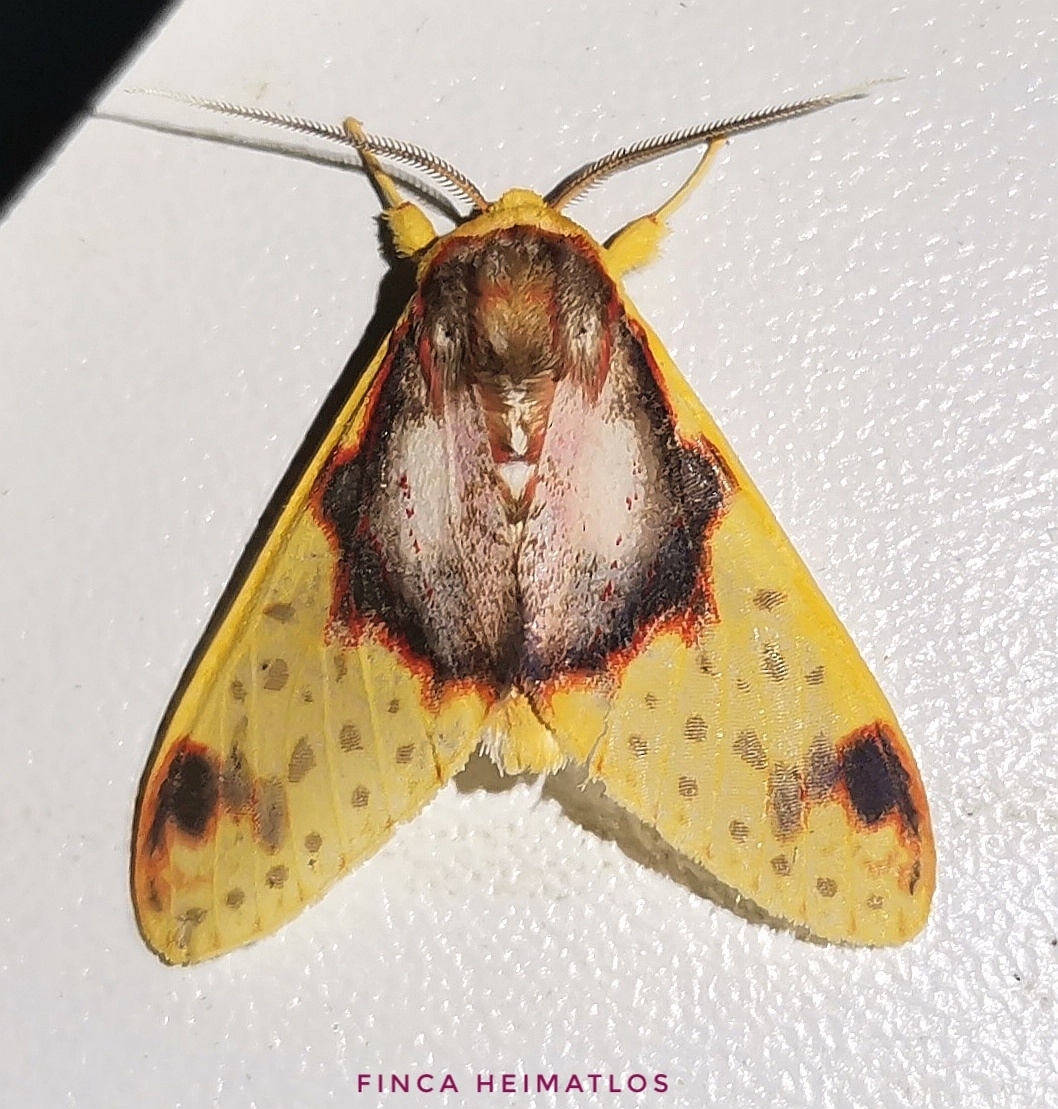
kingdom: Animalia
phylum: Arthropoda
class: Insecta
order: Lepidoptera
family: Erebidae
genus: Amaxia
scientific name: Amaxia flavicollis
